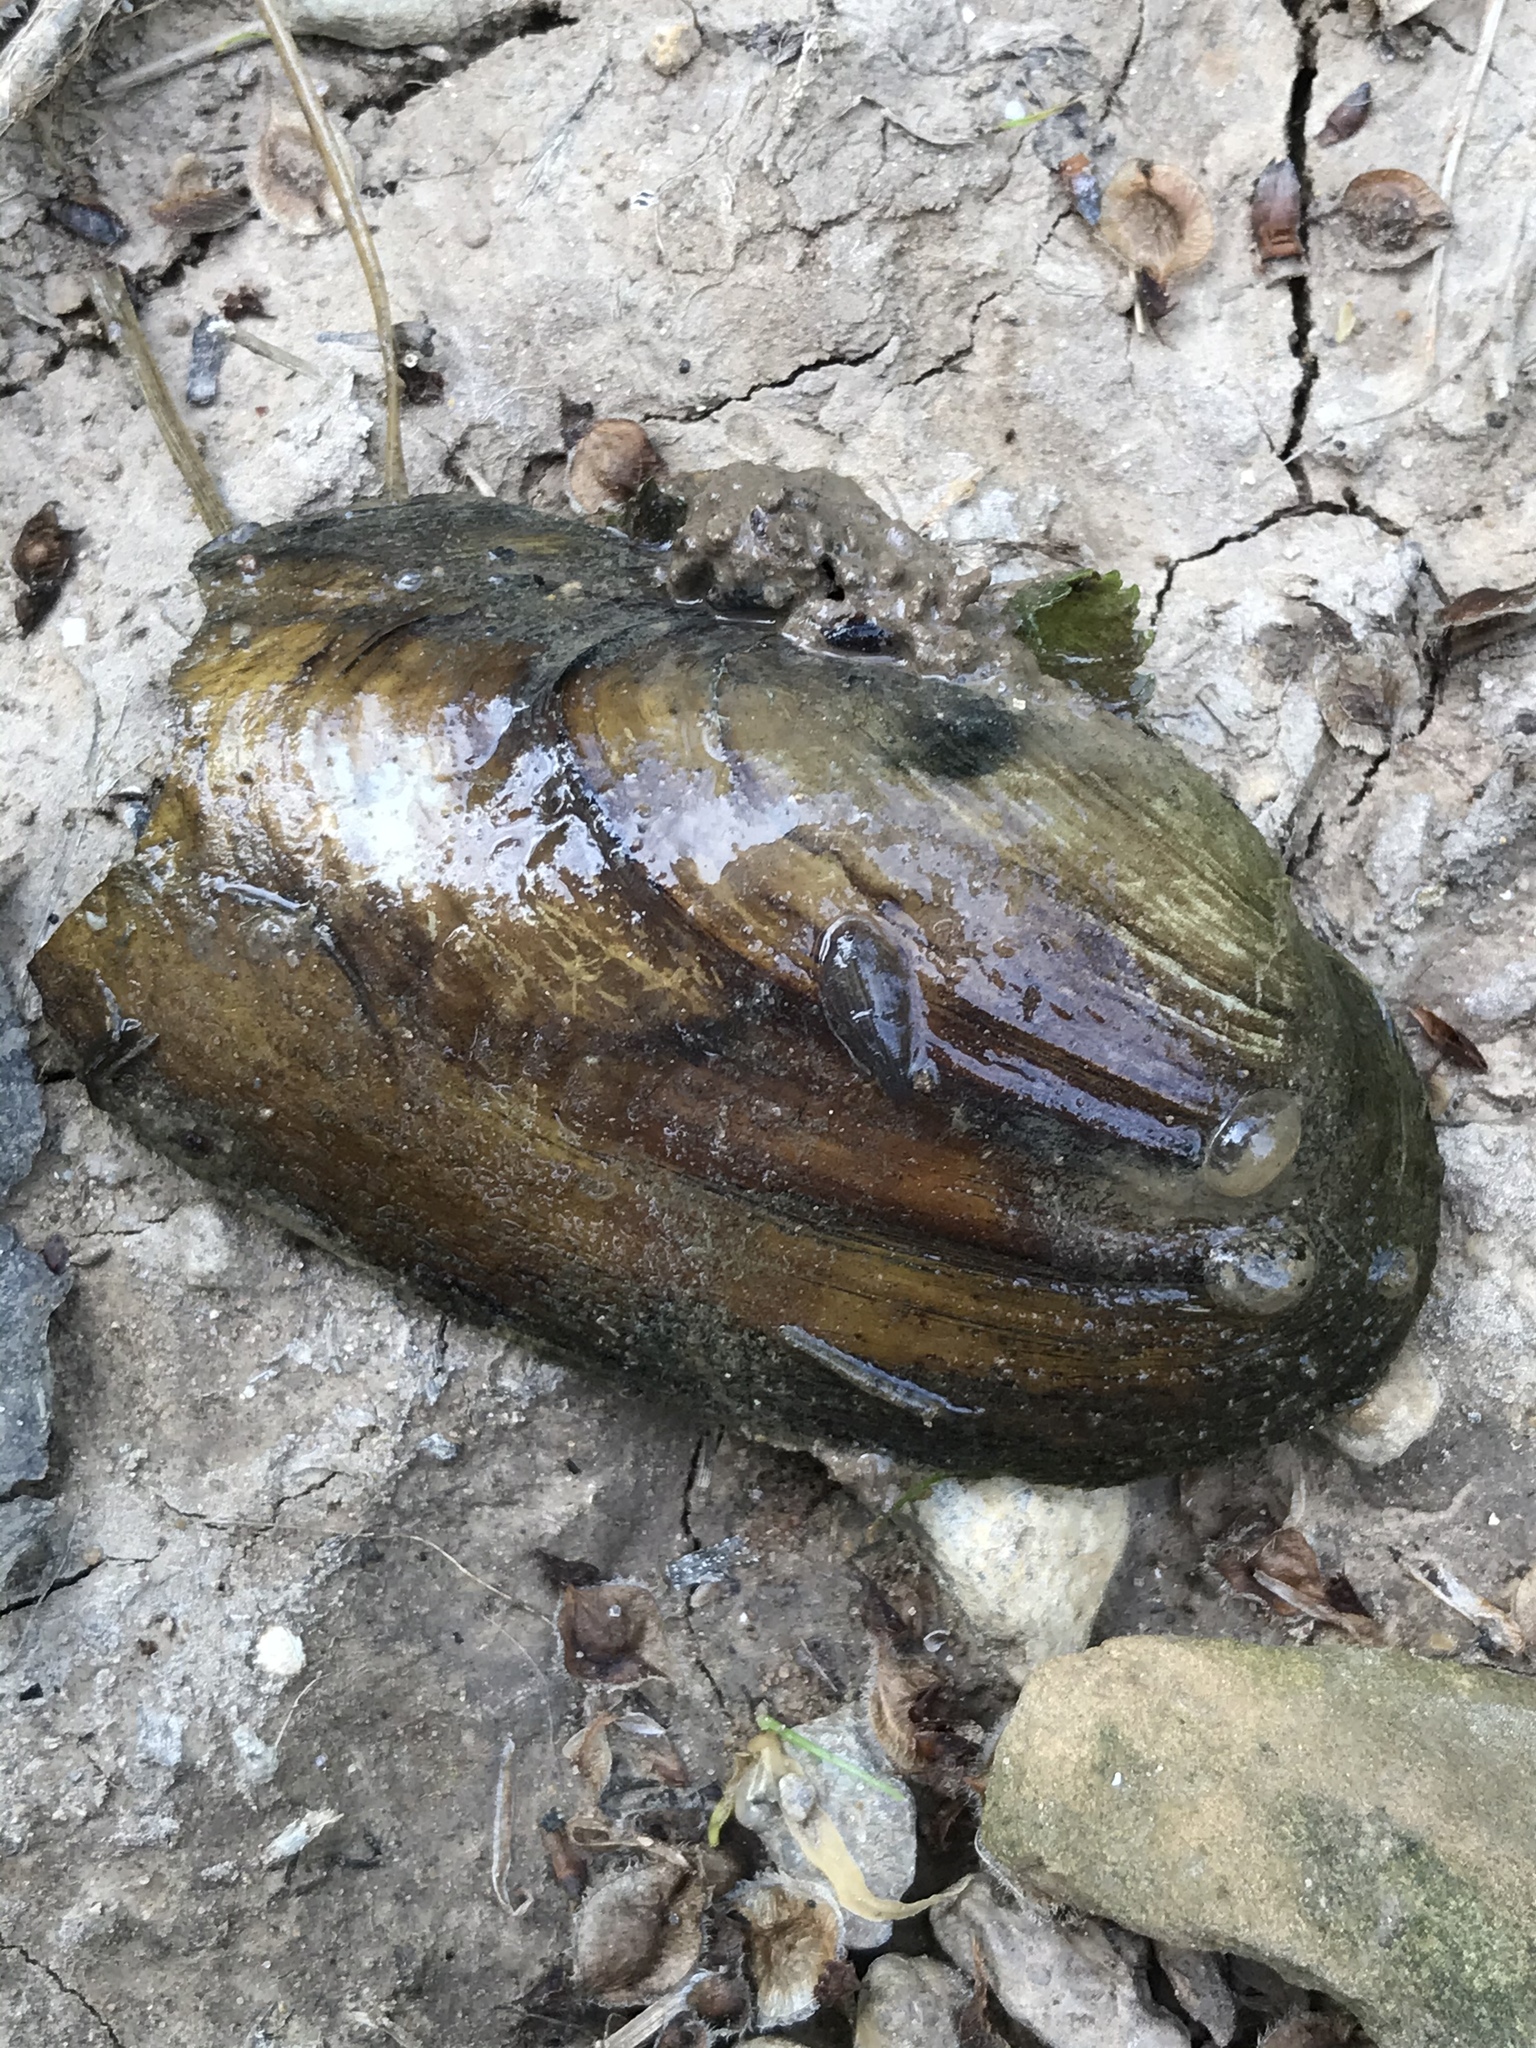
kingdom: Animalia
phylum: Mollusca
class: Bivalvia
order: Unionida
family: Unionidae
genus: Uniomerus
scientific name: Uniomerus tetralasmus
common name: Pondhorn
